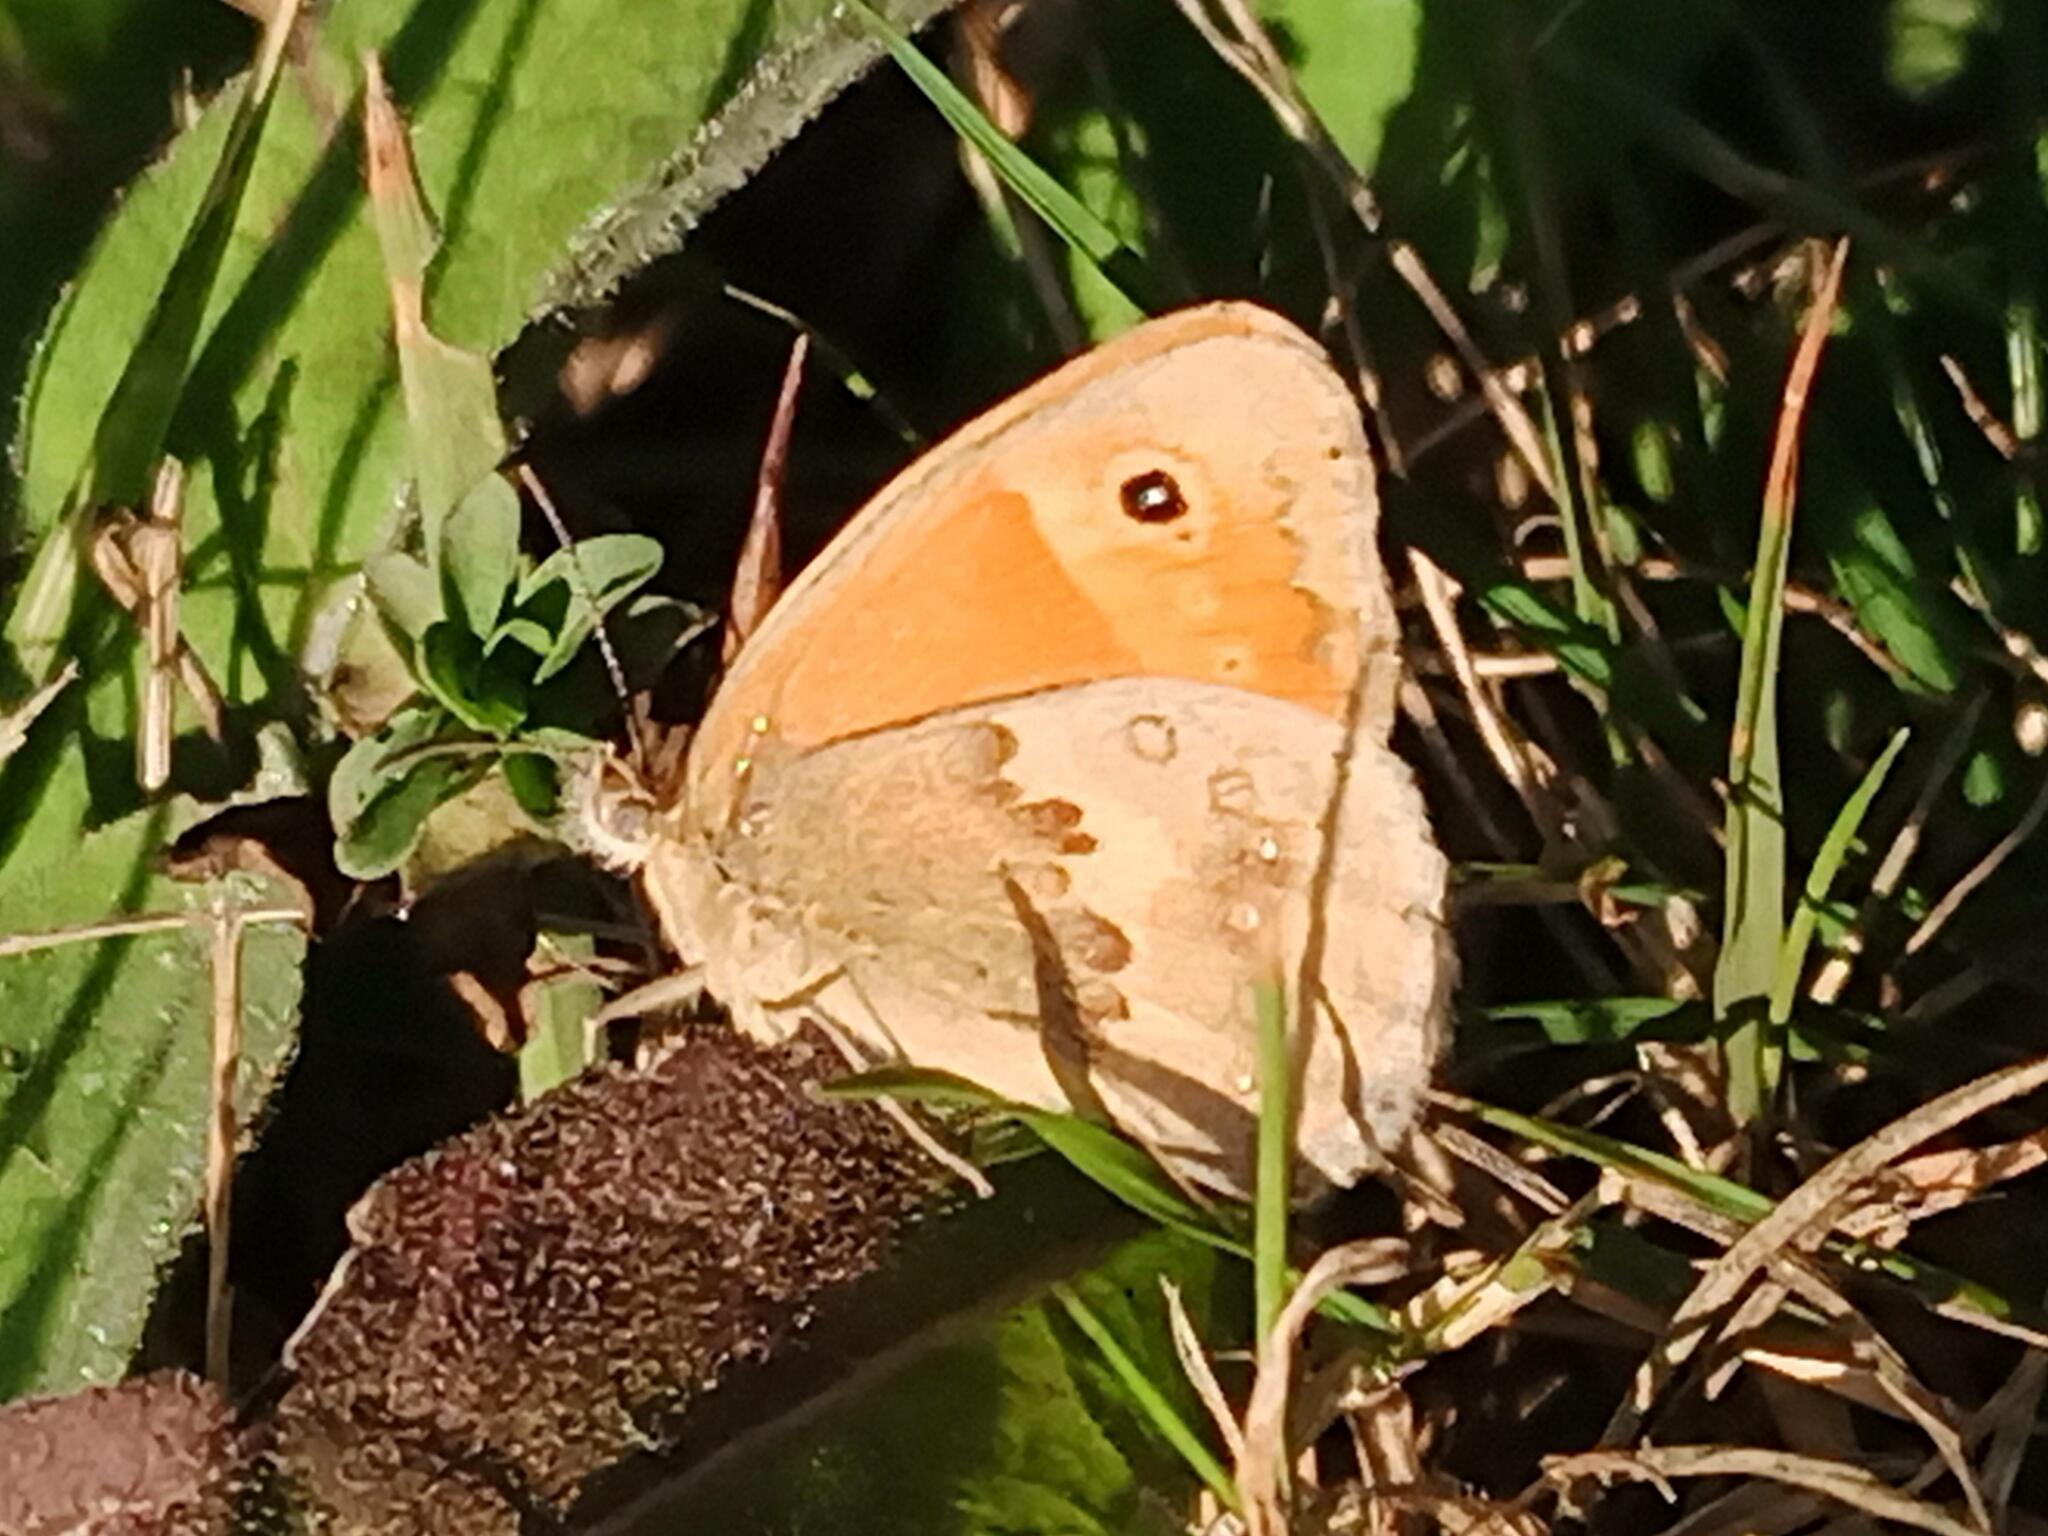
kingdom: Animalia
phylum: Arthropoda
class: Insecta
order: Lepidoptera
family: Nymphalidae
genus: Coenonympha
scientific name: Coenonympha pamphilus
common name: Small heath
